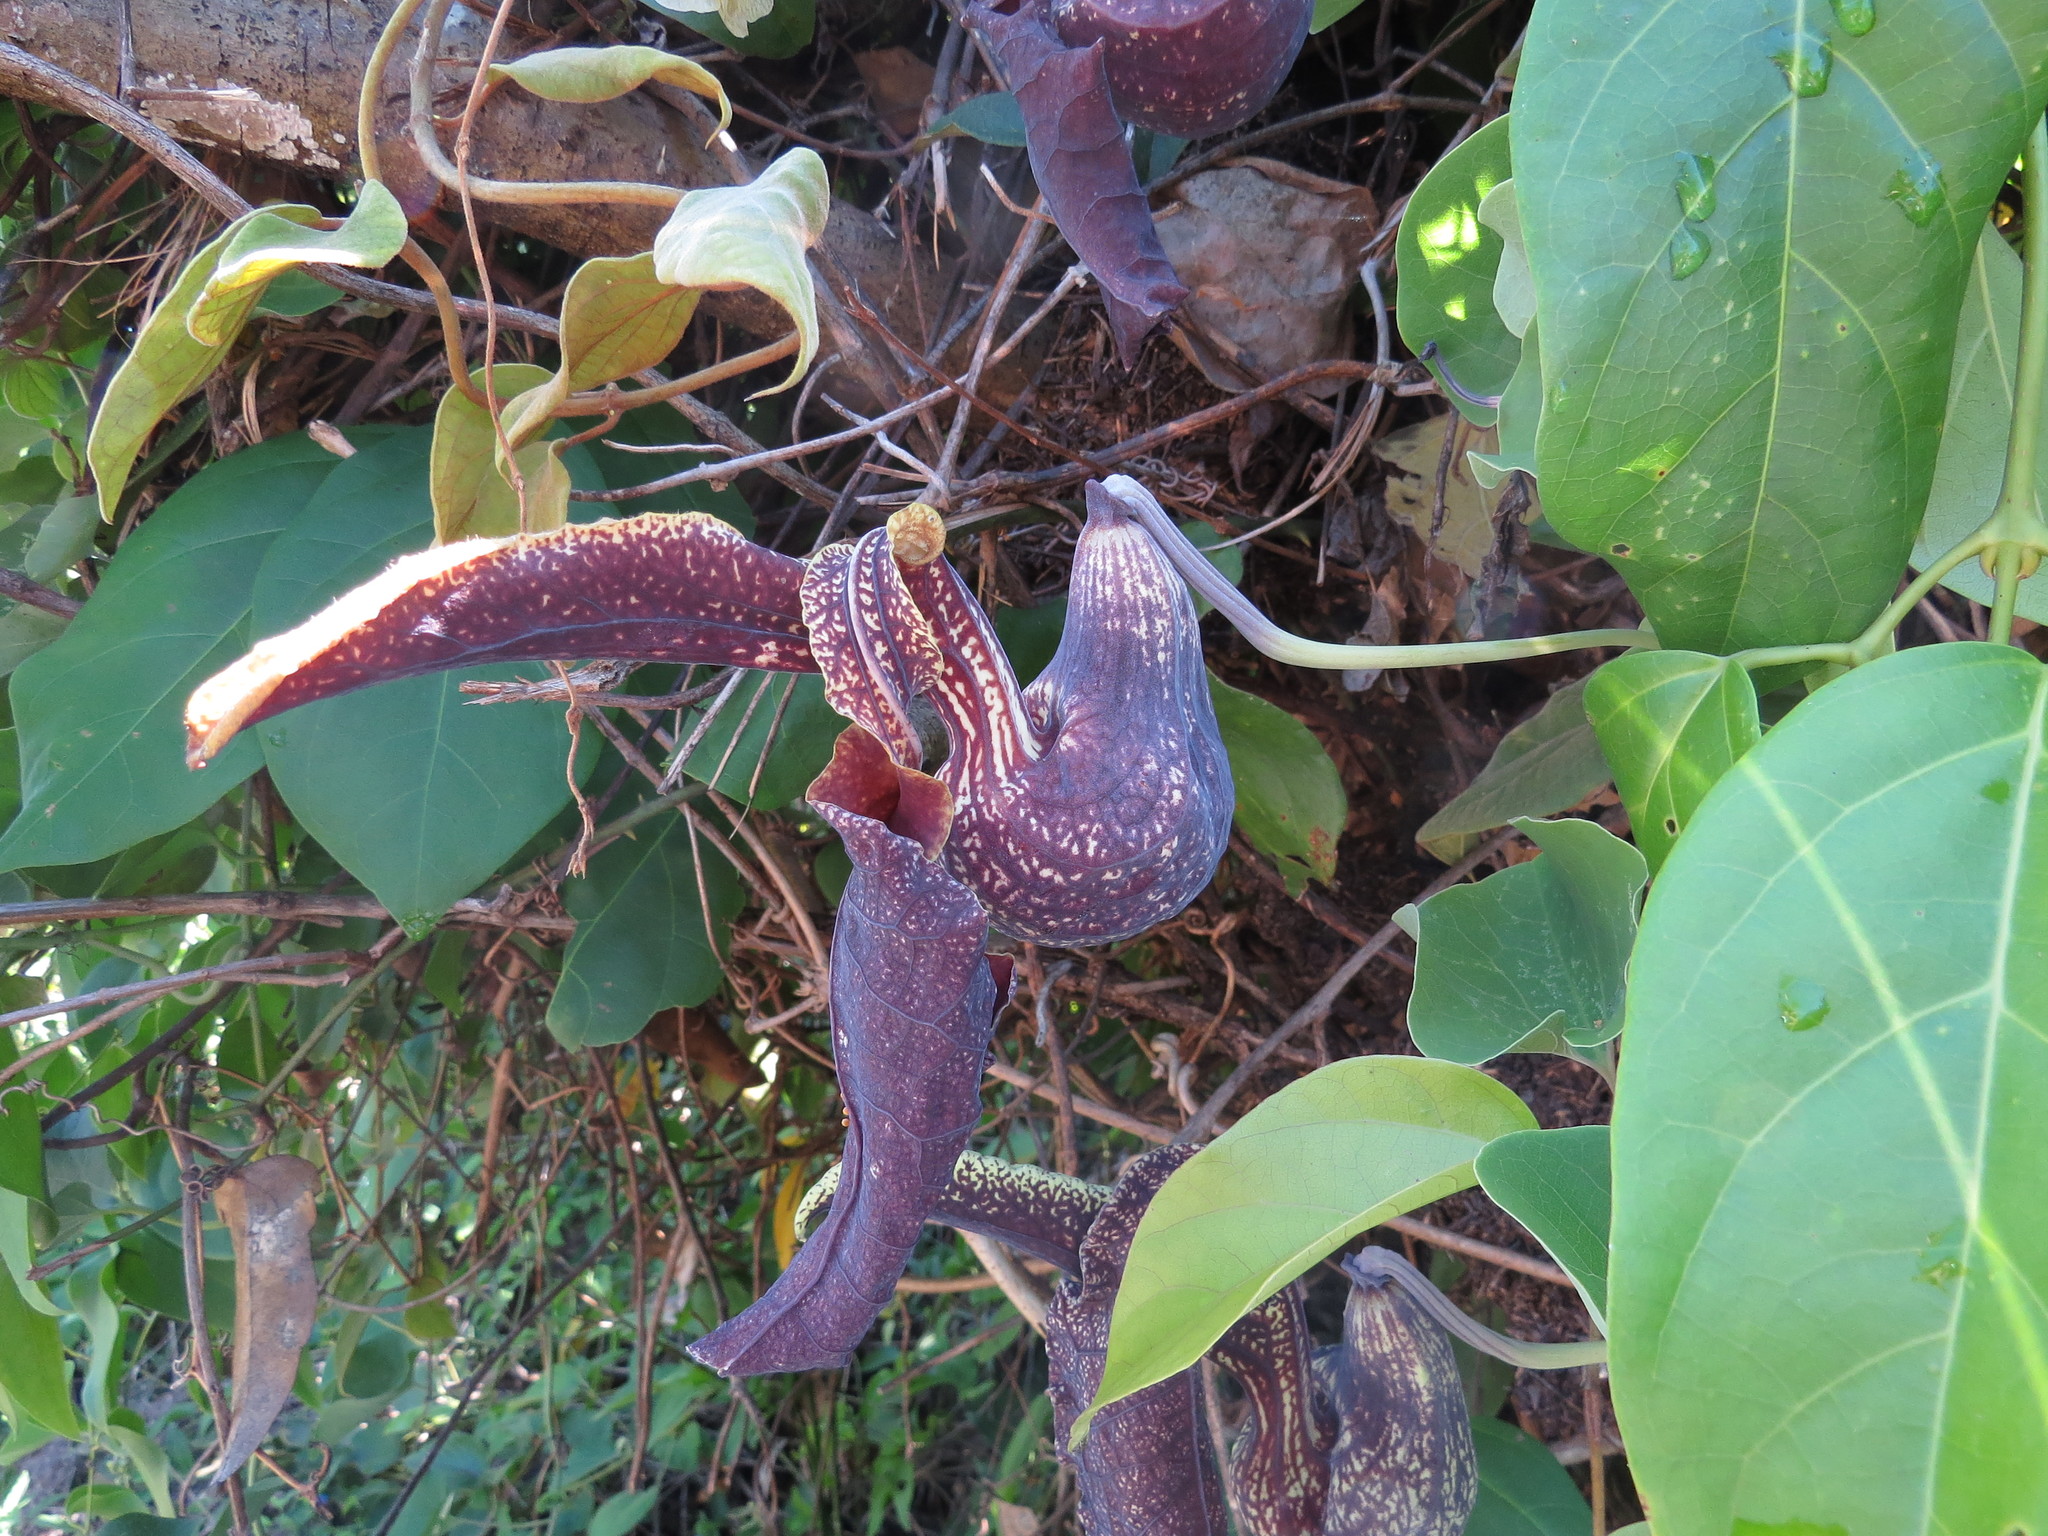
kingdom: Plantae
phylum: Tracheophyta
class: Magnoliopsida
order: Piperales
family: Aristolochiaceae
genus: Aristolochia
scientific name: Aristolochia
